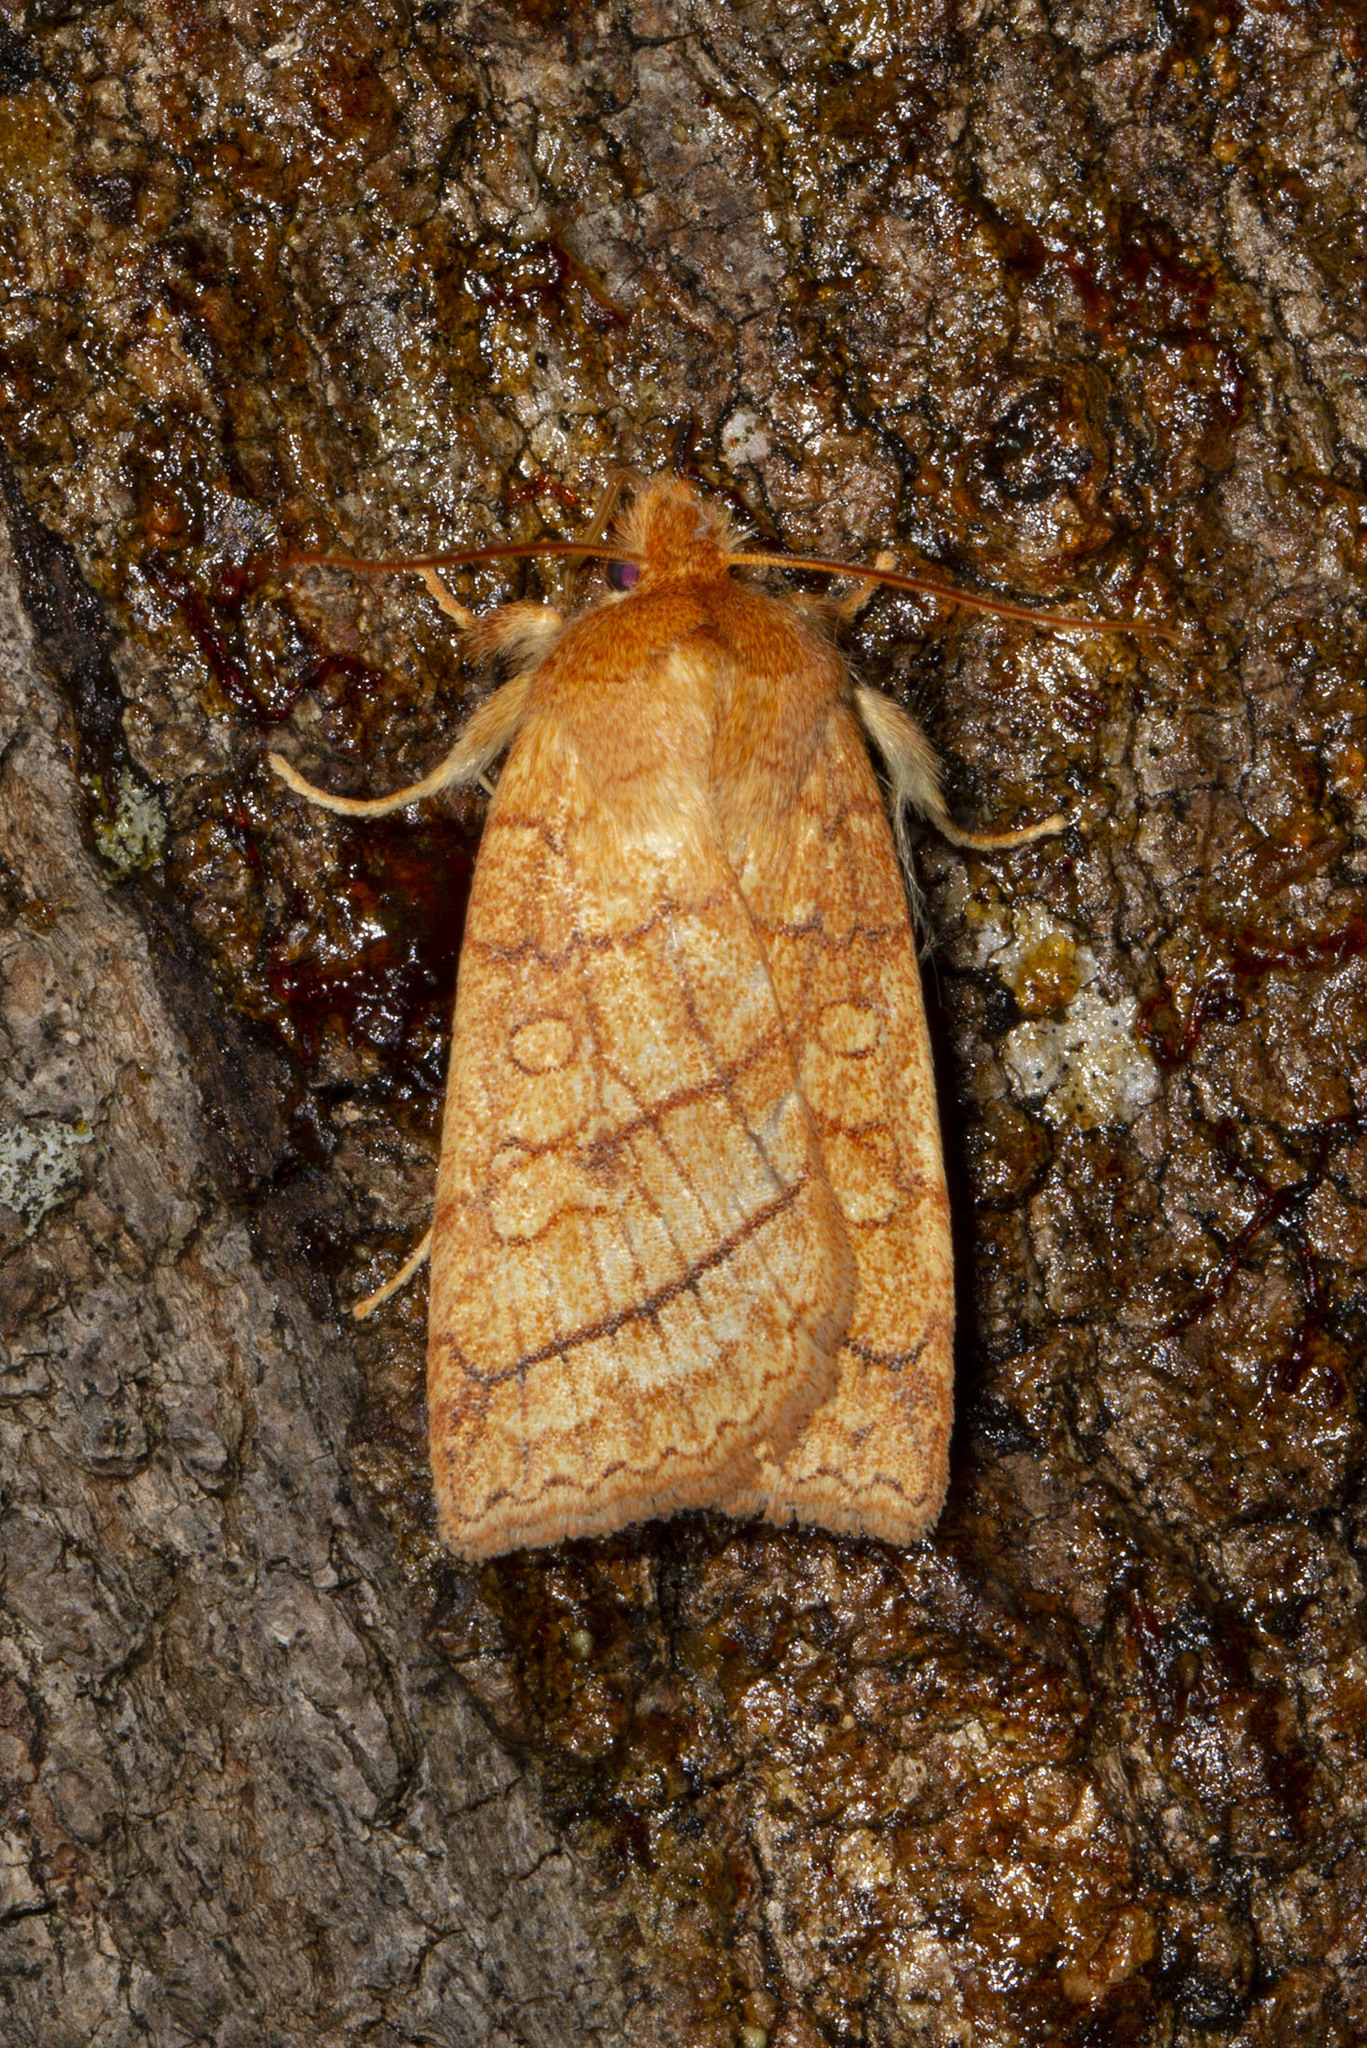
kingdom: Animalia
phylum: Arthropoda
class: Insecta
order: Lepidoptera
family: Noctuidae
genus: Pyreferra
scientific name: Pyreferra hesperidago
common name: Mustard sallow
